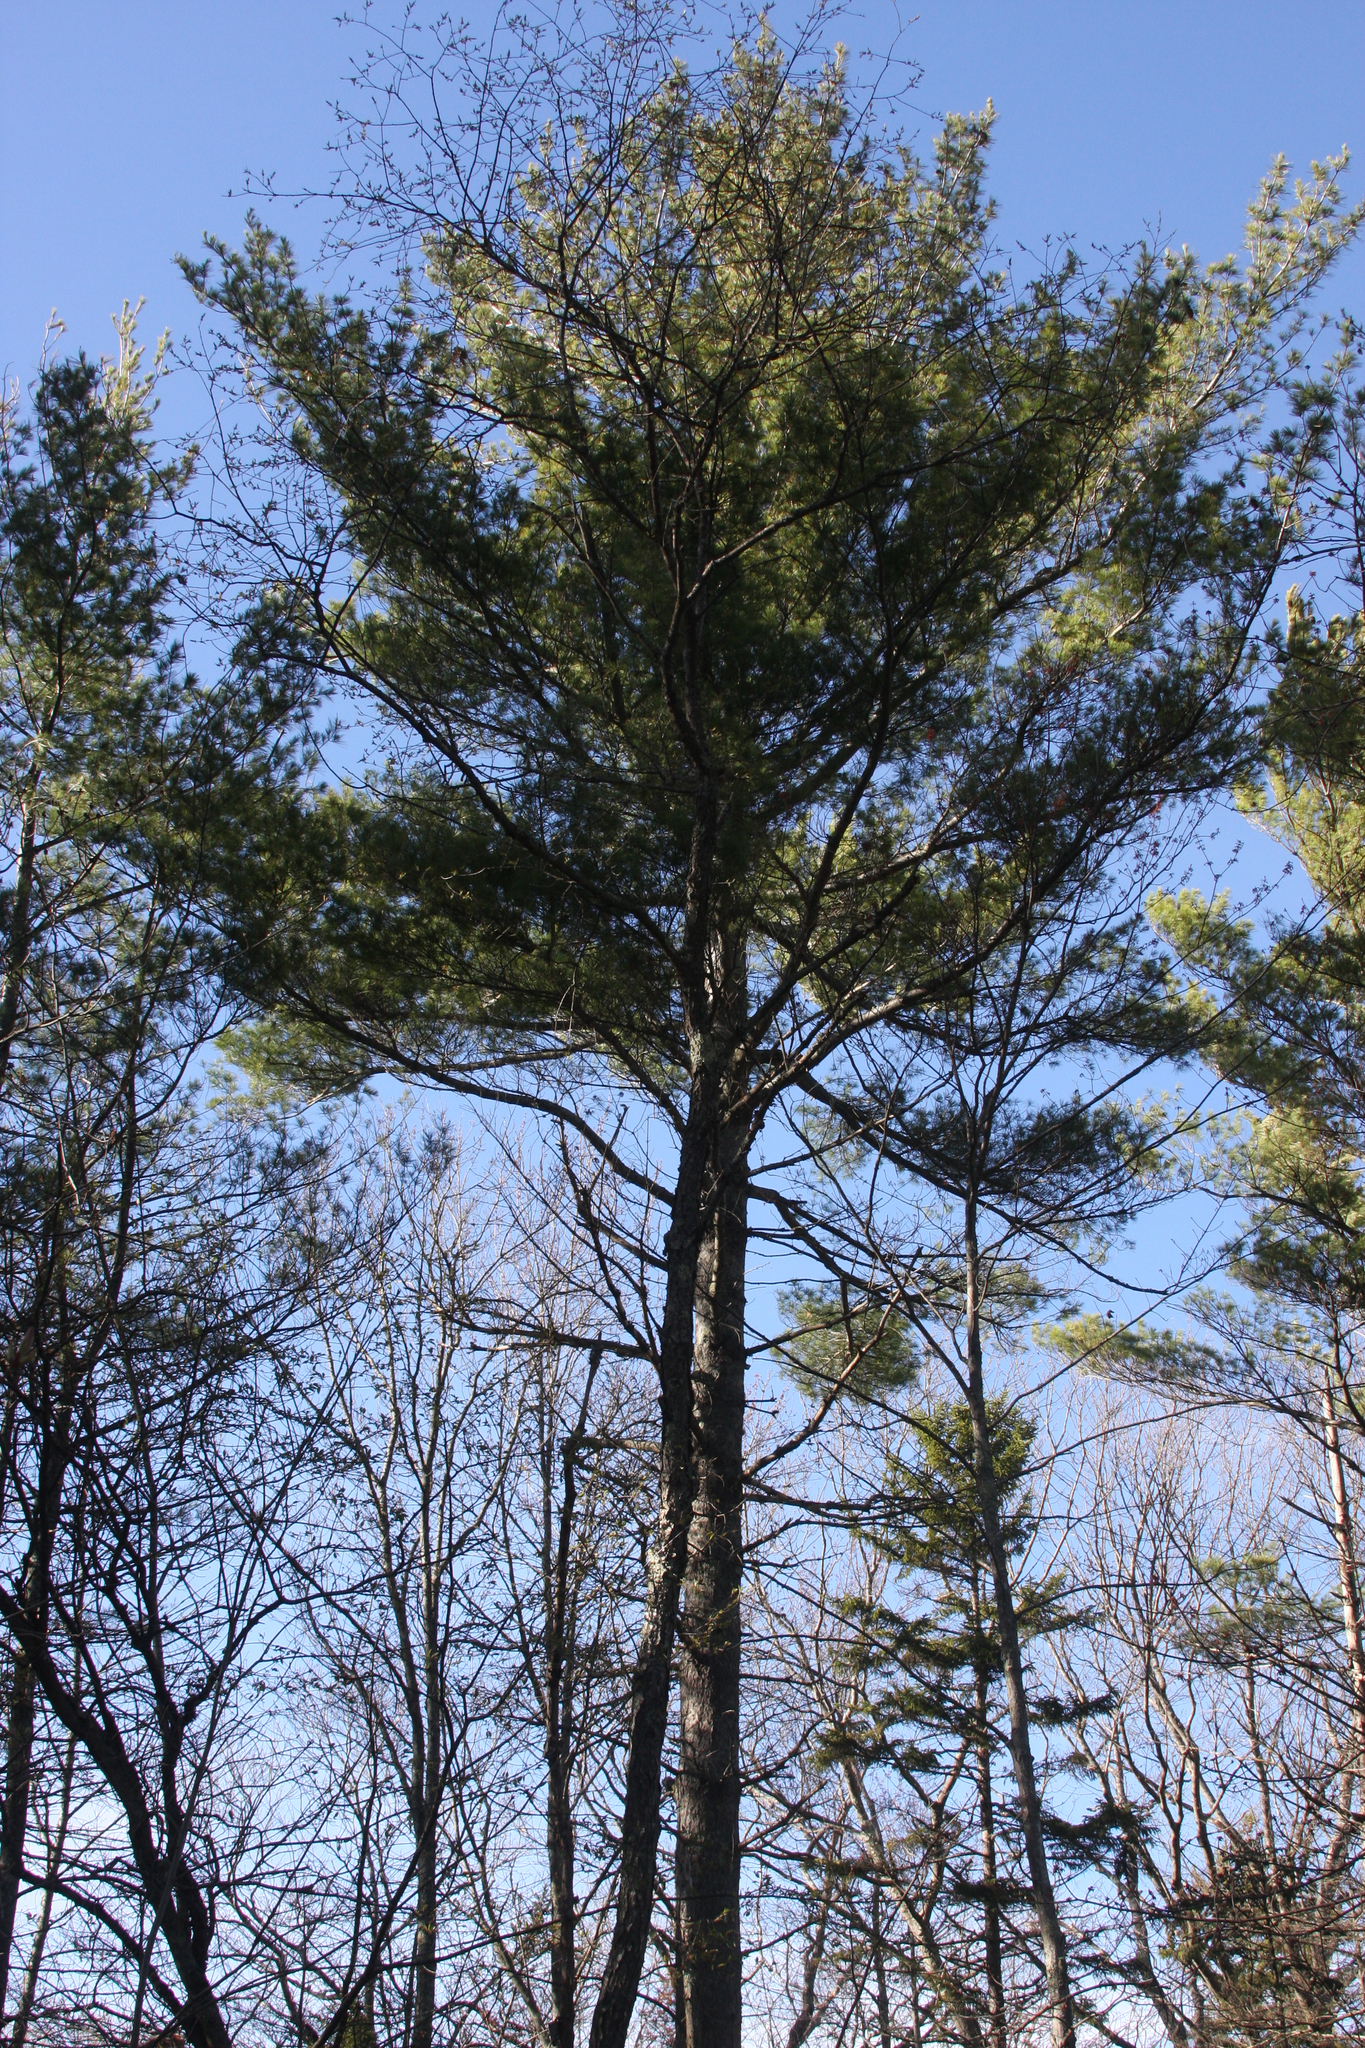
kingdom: Plantae
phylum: Tracheophyta
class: Pinopsida
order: Pinales
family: Pinaceae
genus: Pinus
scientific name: Pinus strobus
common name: Weymouth pine
